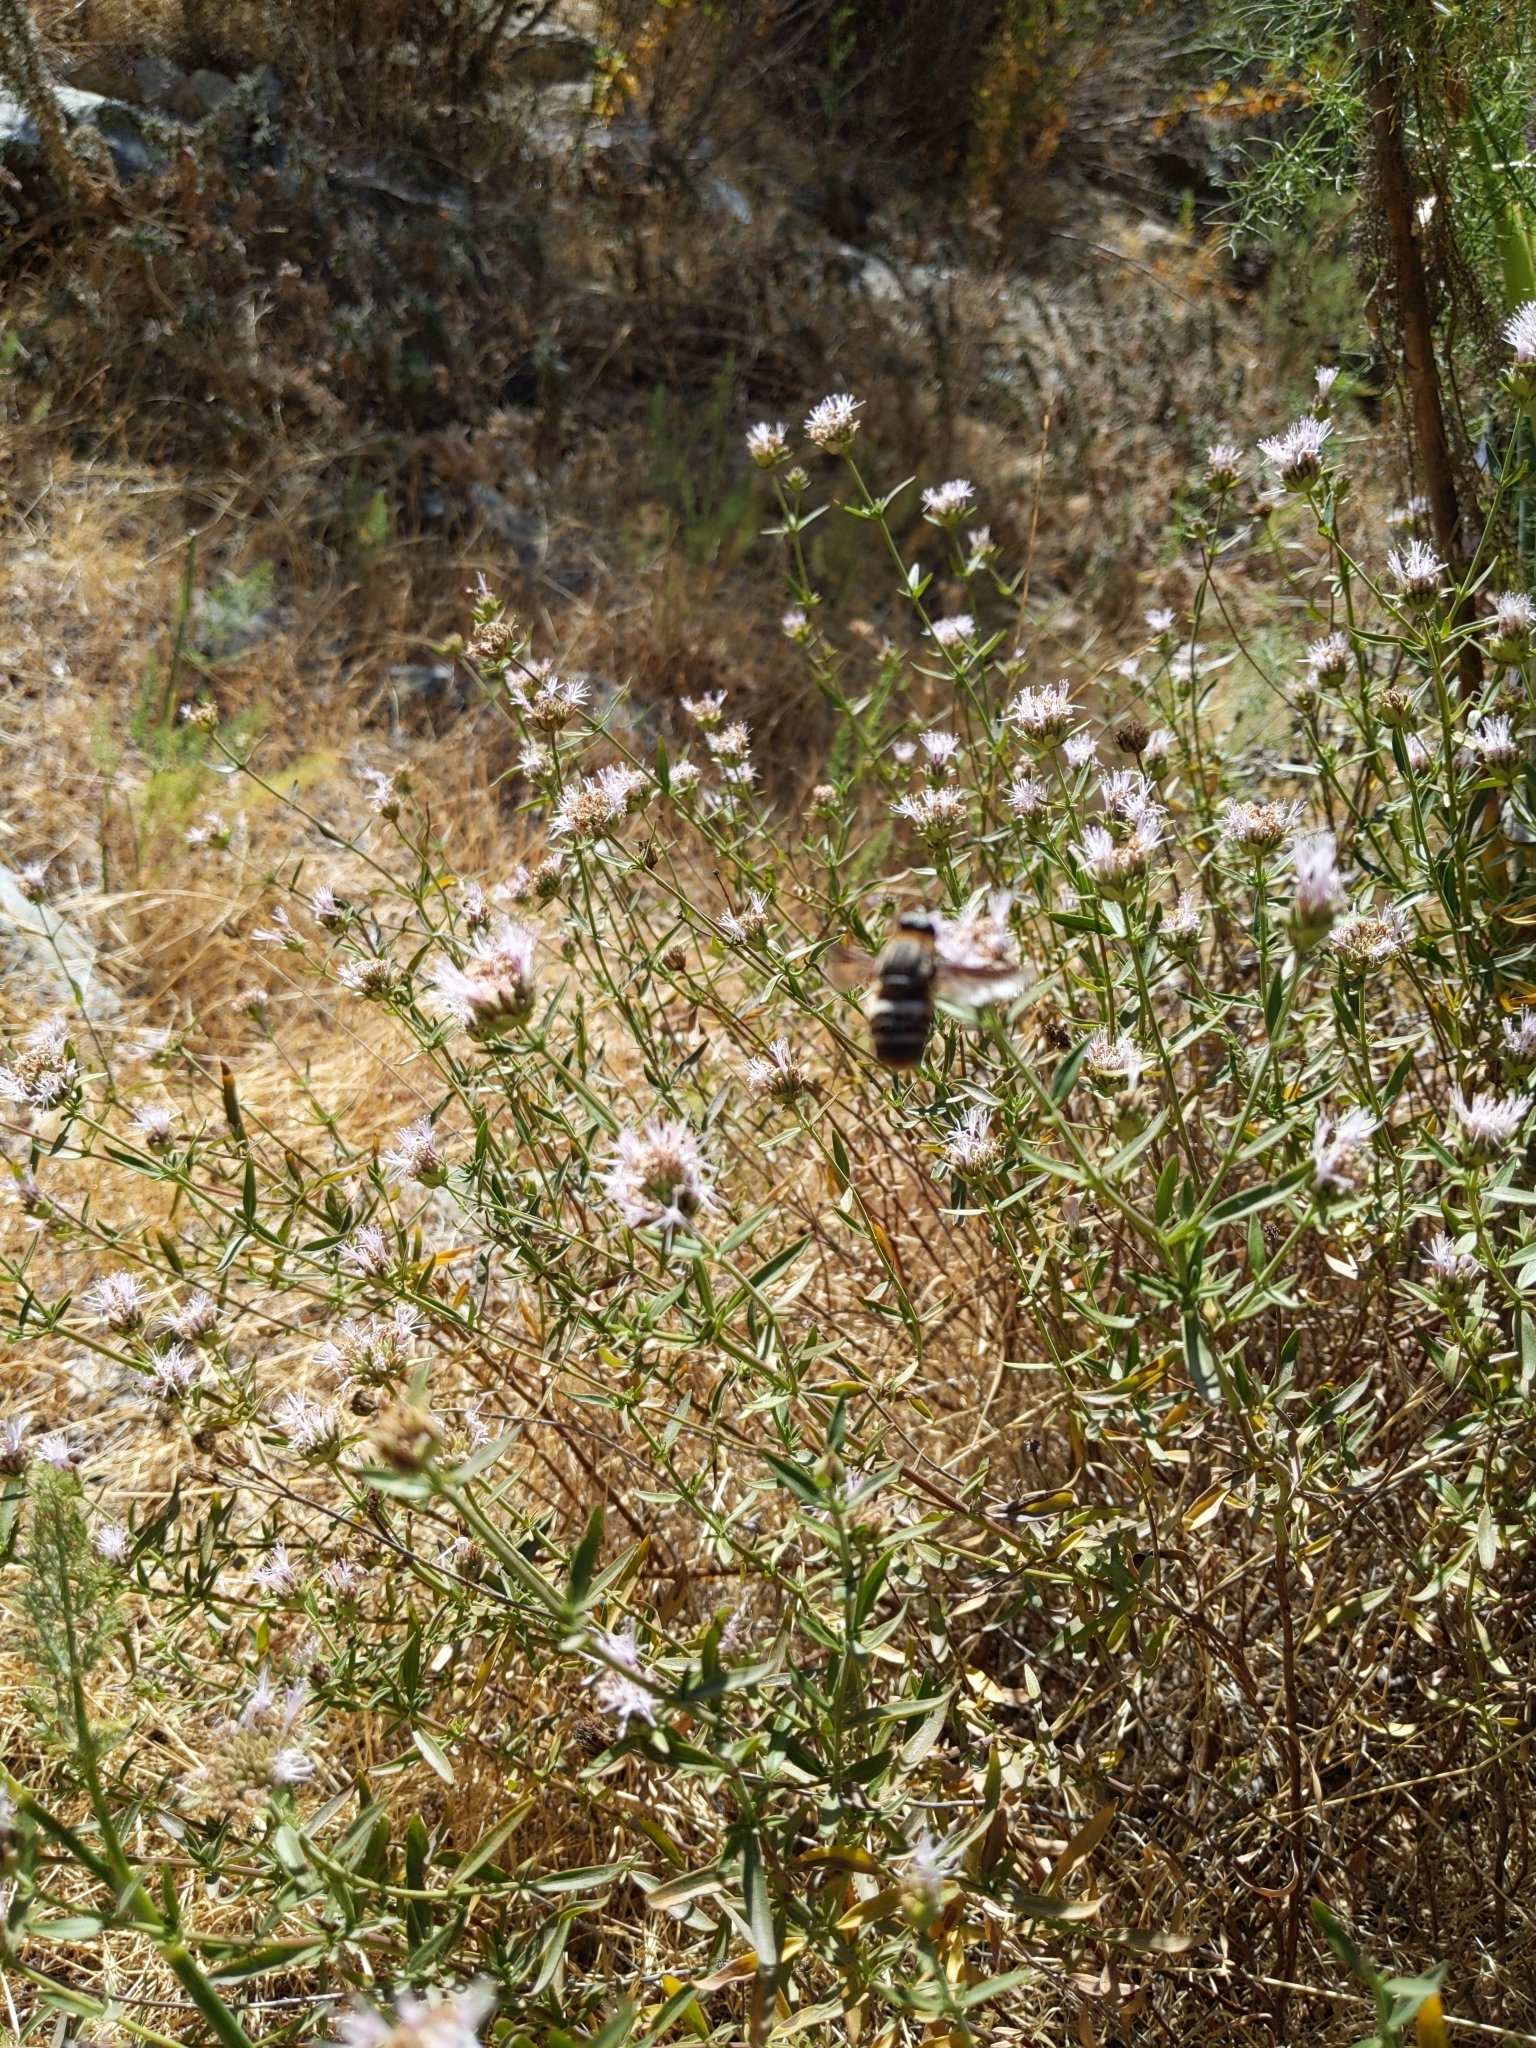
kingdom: Plantae
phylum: Tracheophyta
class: Magnoliopsida
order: Lamiales
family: Lamiaceae
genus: Monardella
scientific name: Monardella stoneana
